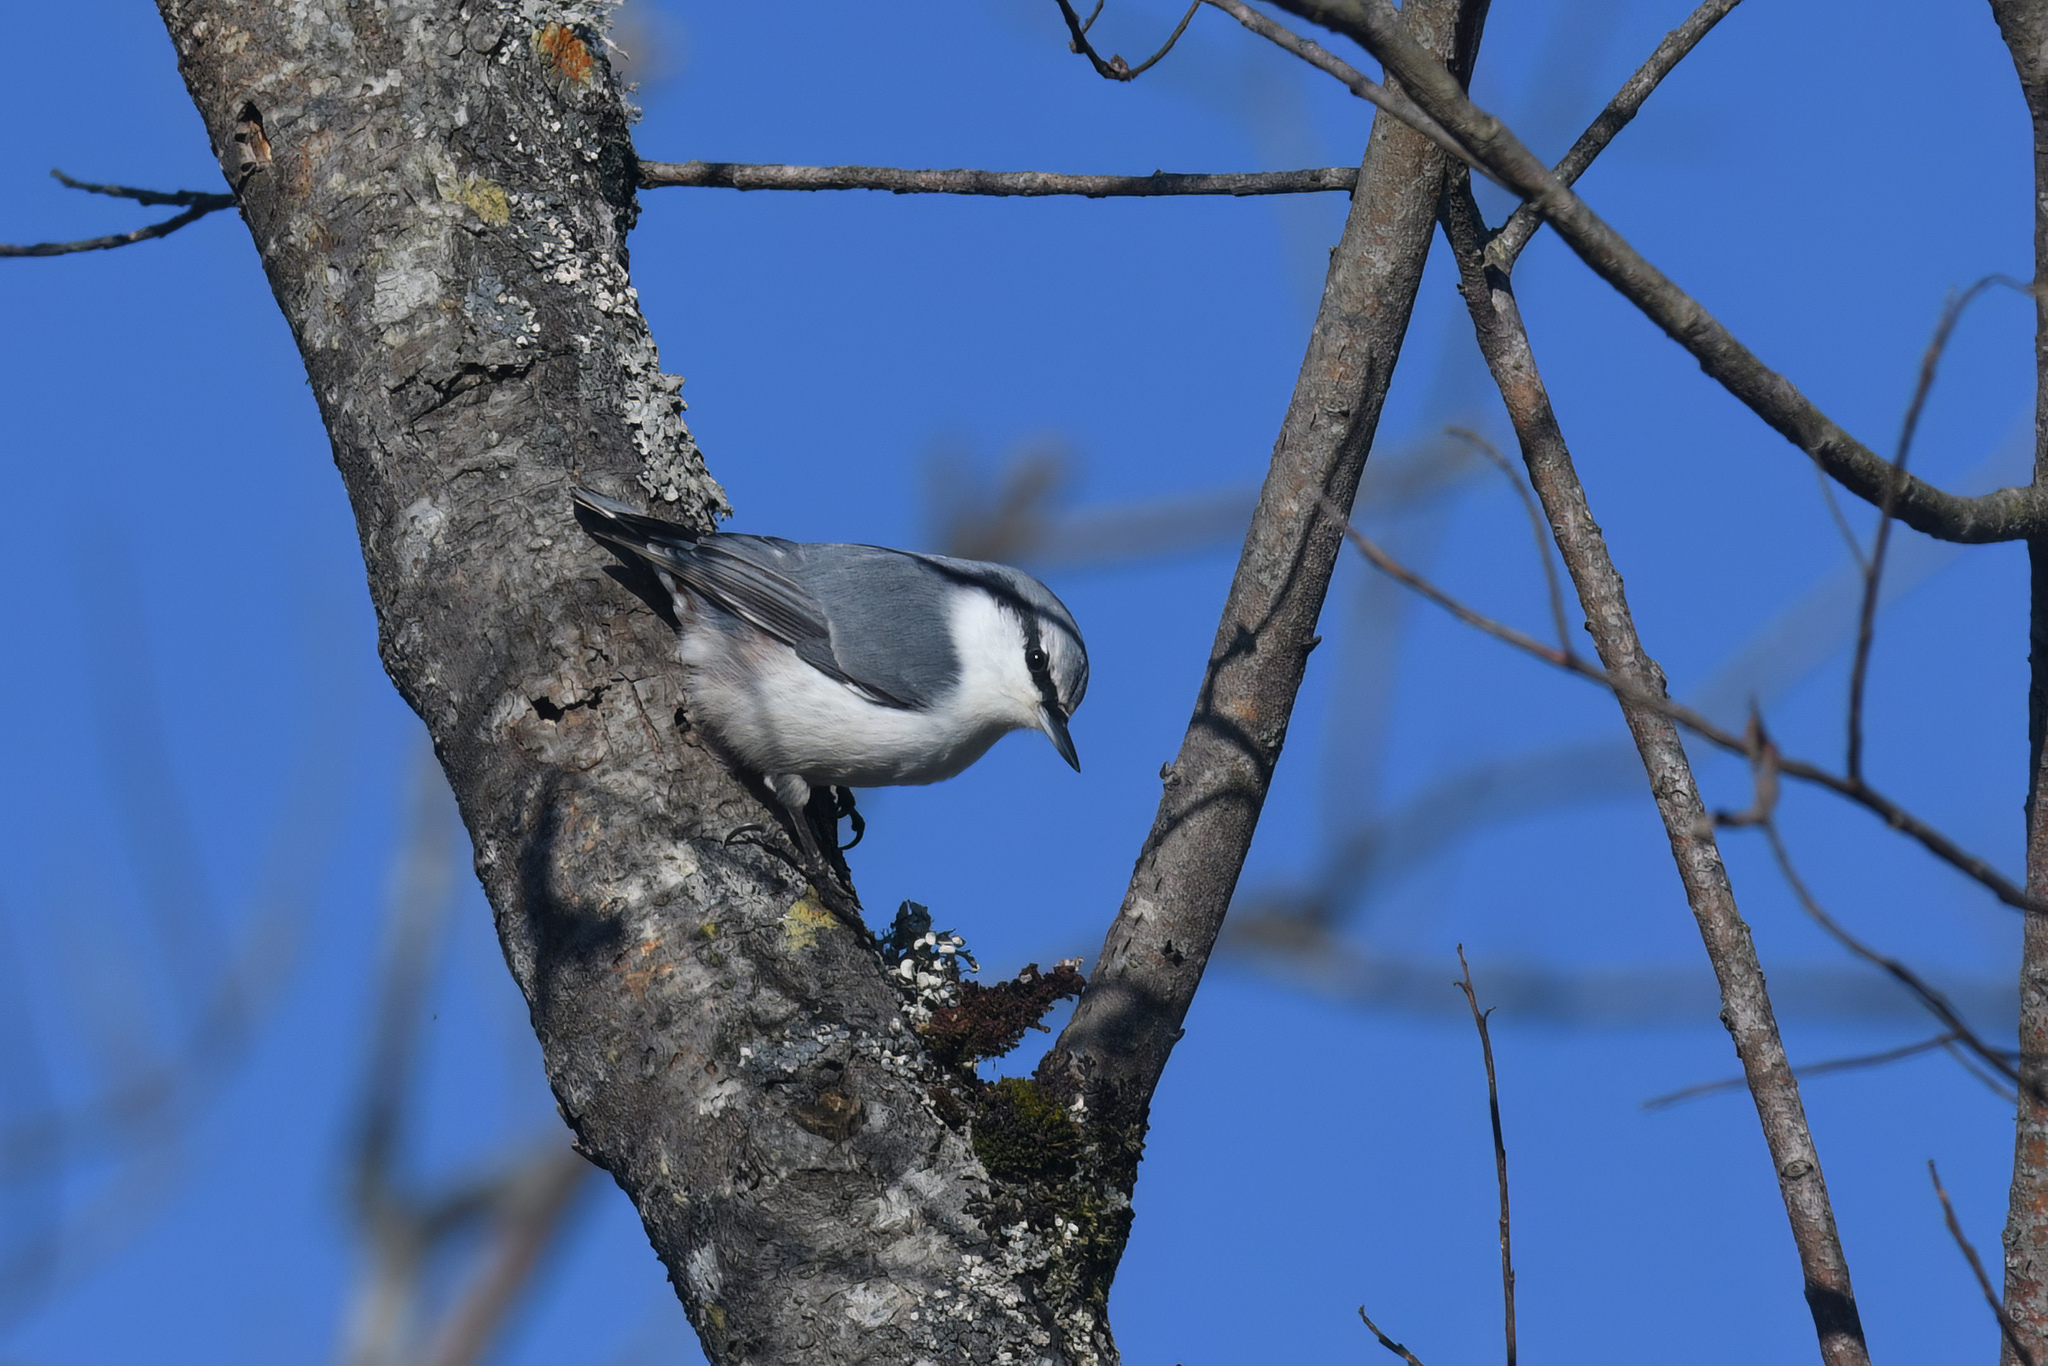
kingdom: Animalia
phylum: Chordata
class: Aves
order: Passeriformes
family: Sittidae
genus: Sitta
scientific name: Sitta europaea
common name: Eurasian nuthatch
